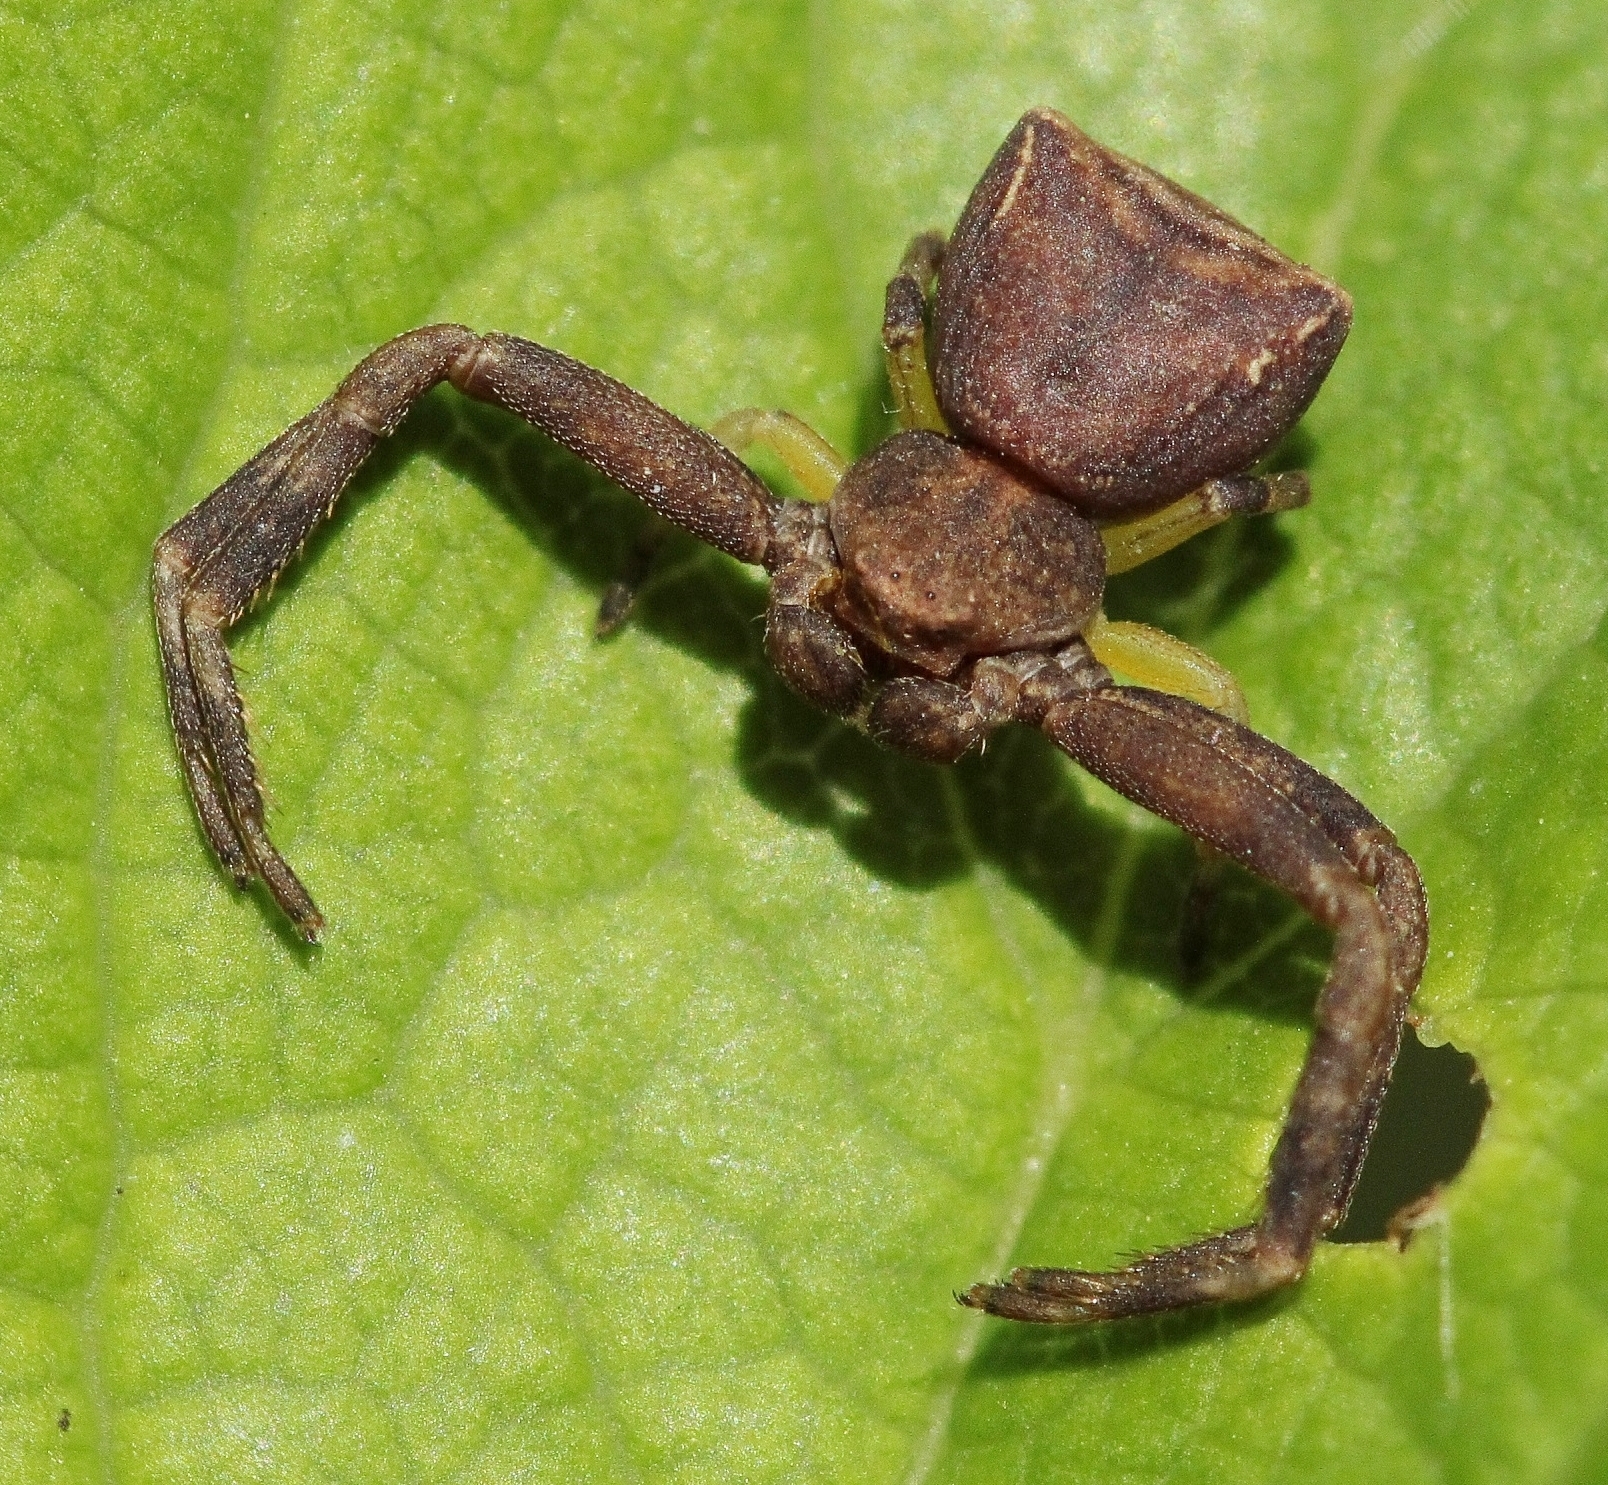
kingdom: Animalia
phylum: Arthropoda
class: Arachnida
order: Araneae
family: Thomisidae
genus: Pistius
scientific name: Pistius truncatus
